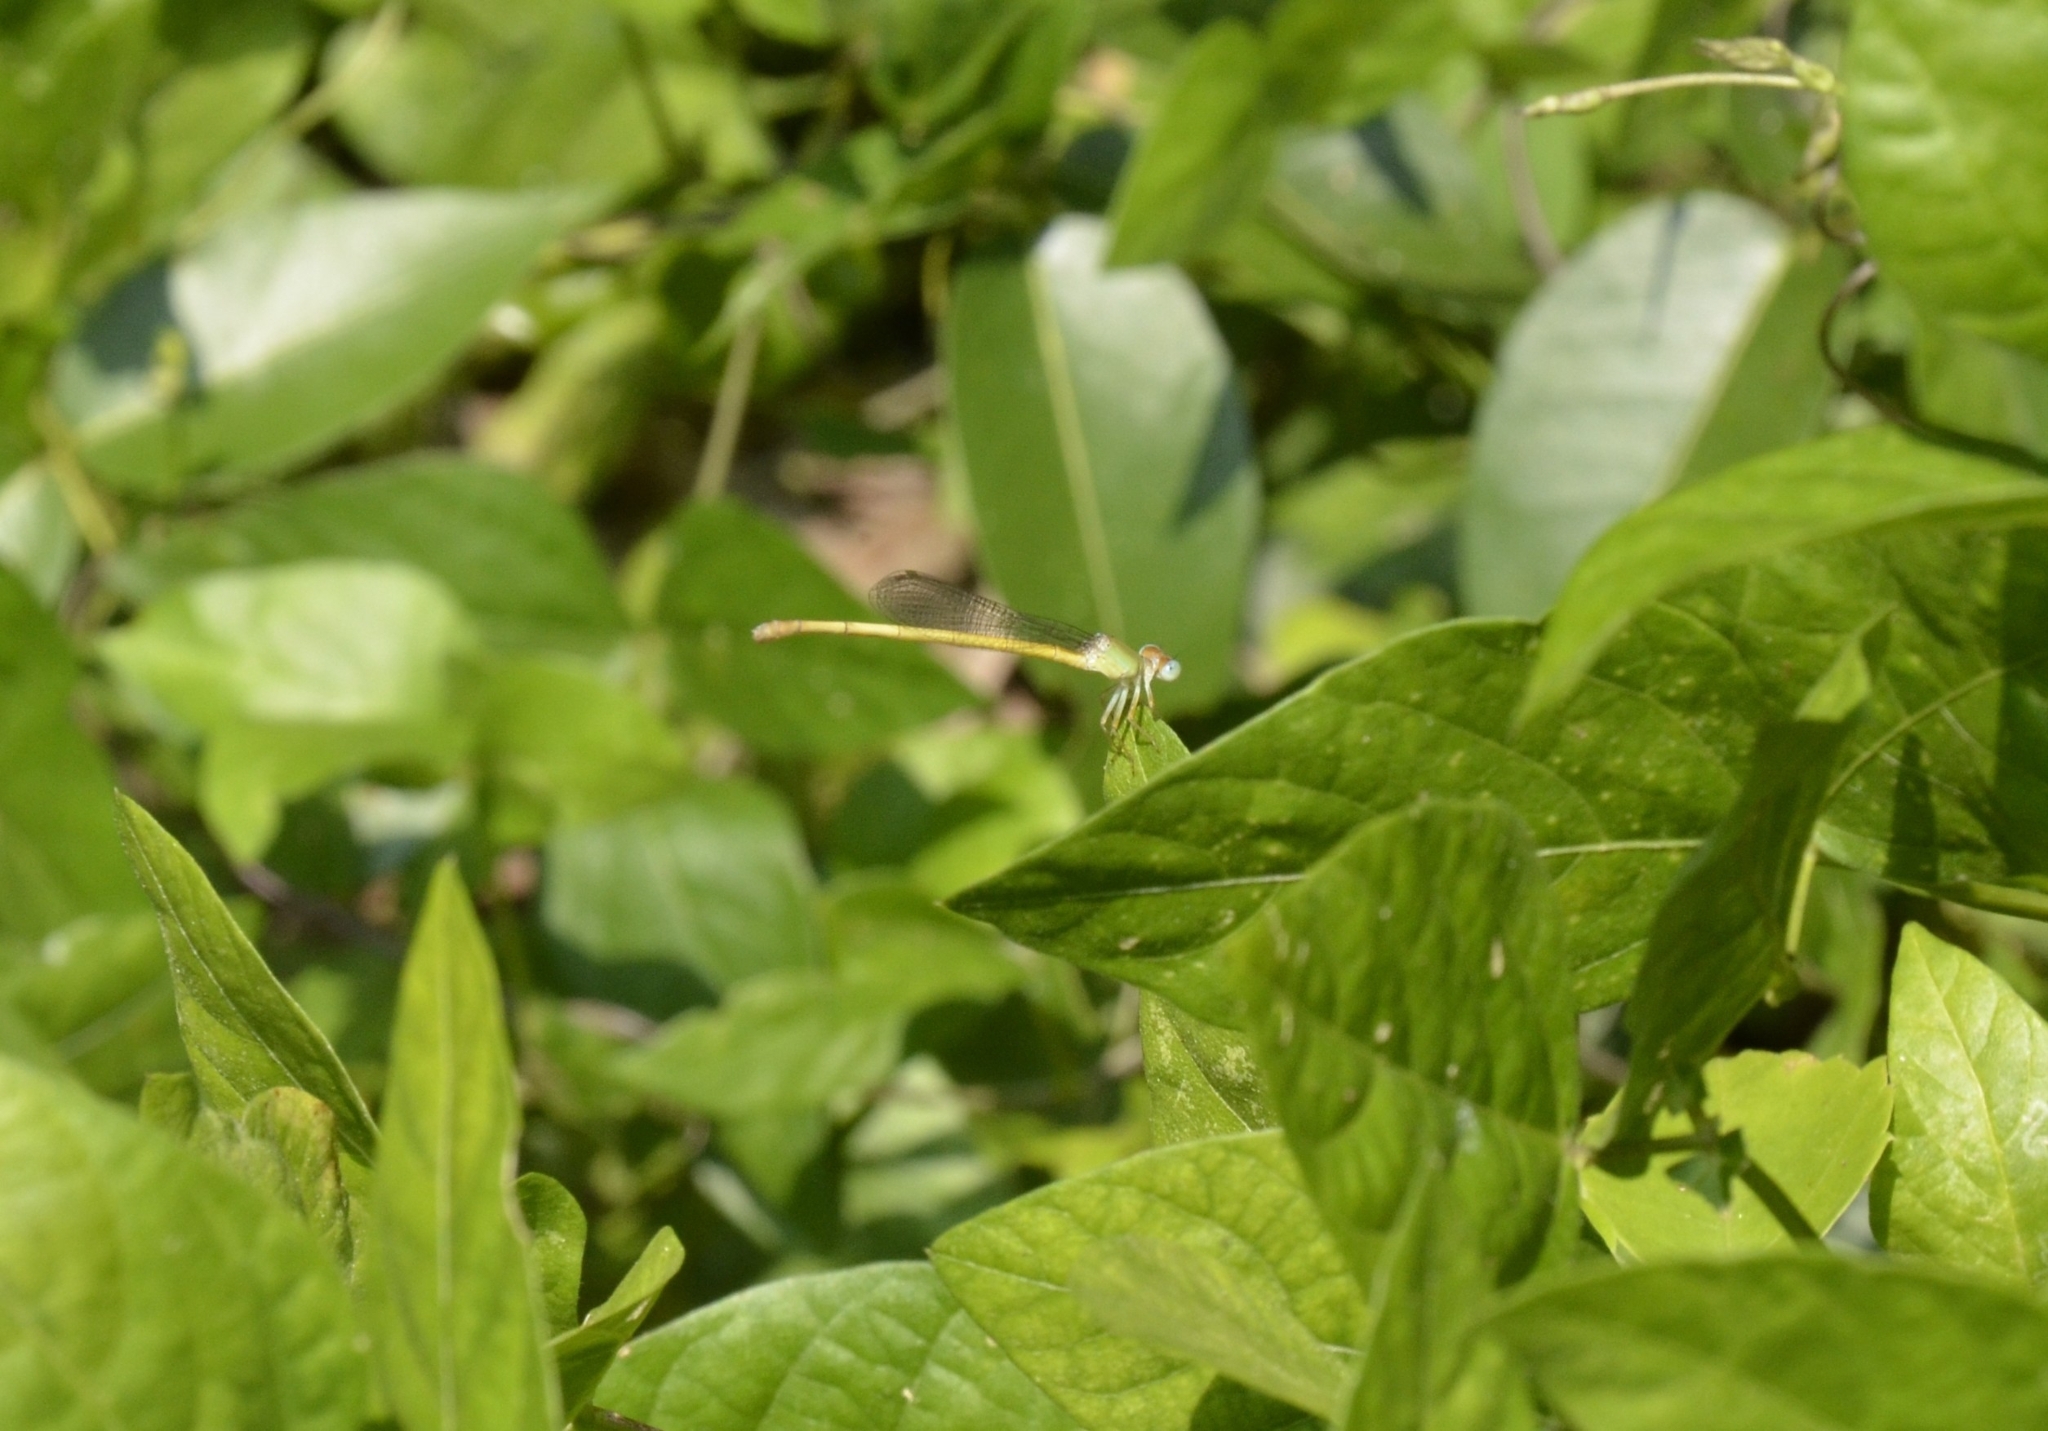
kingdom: Animalia
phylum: Arthropoda
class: Insecta
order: Odonata
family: Coenagrionidae
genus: Ceriagrion
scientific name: Ceriagrion coromandelianum
